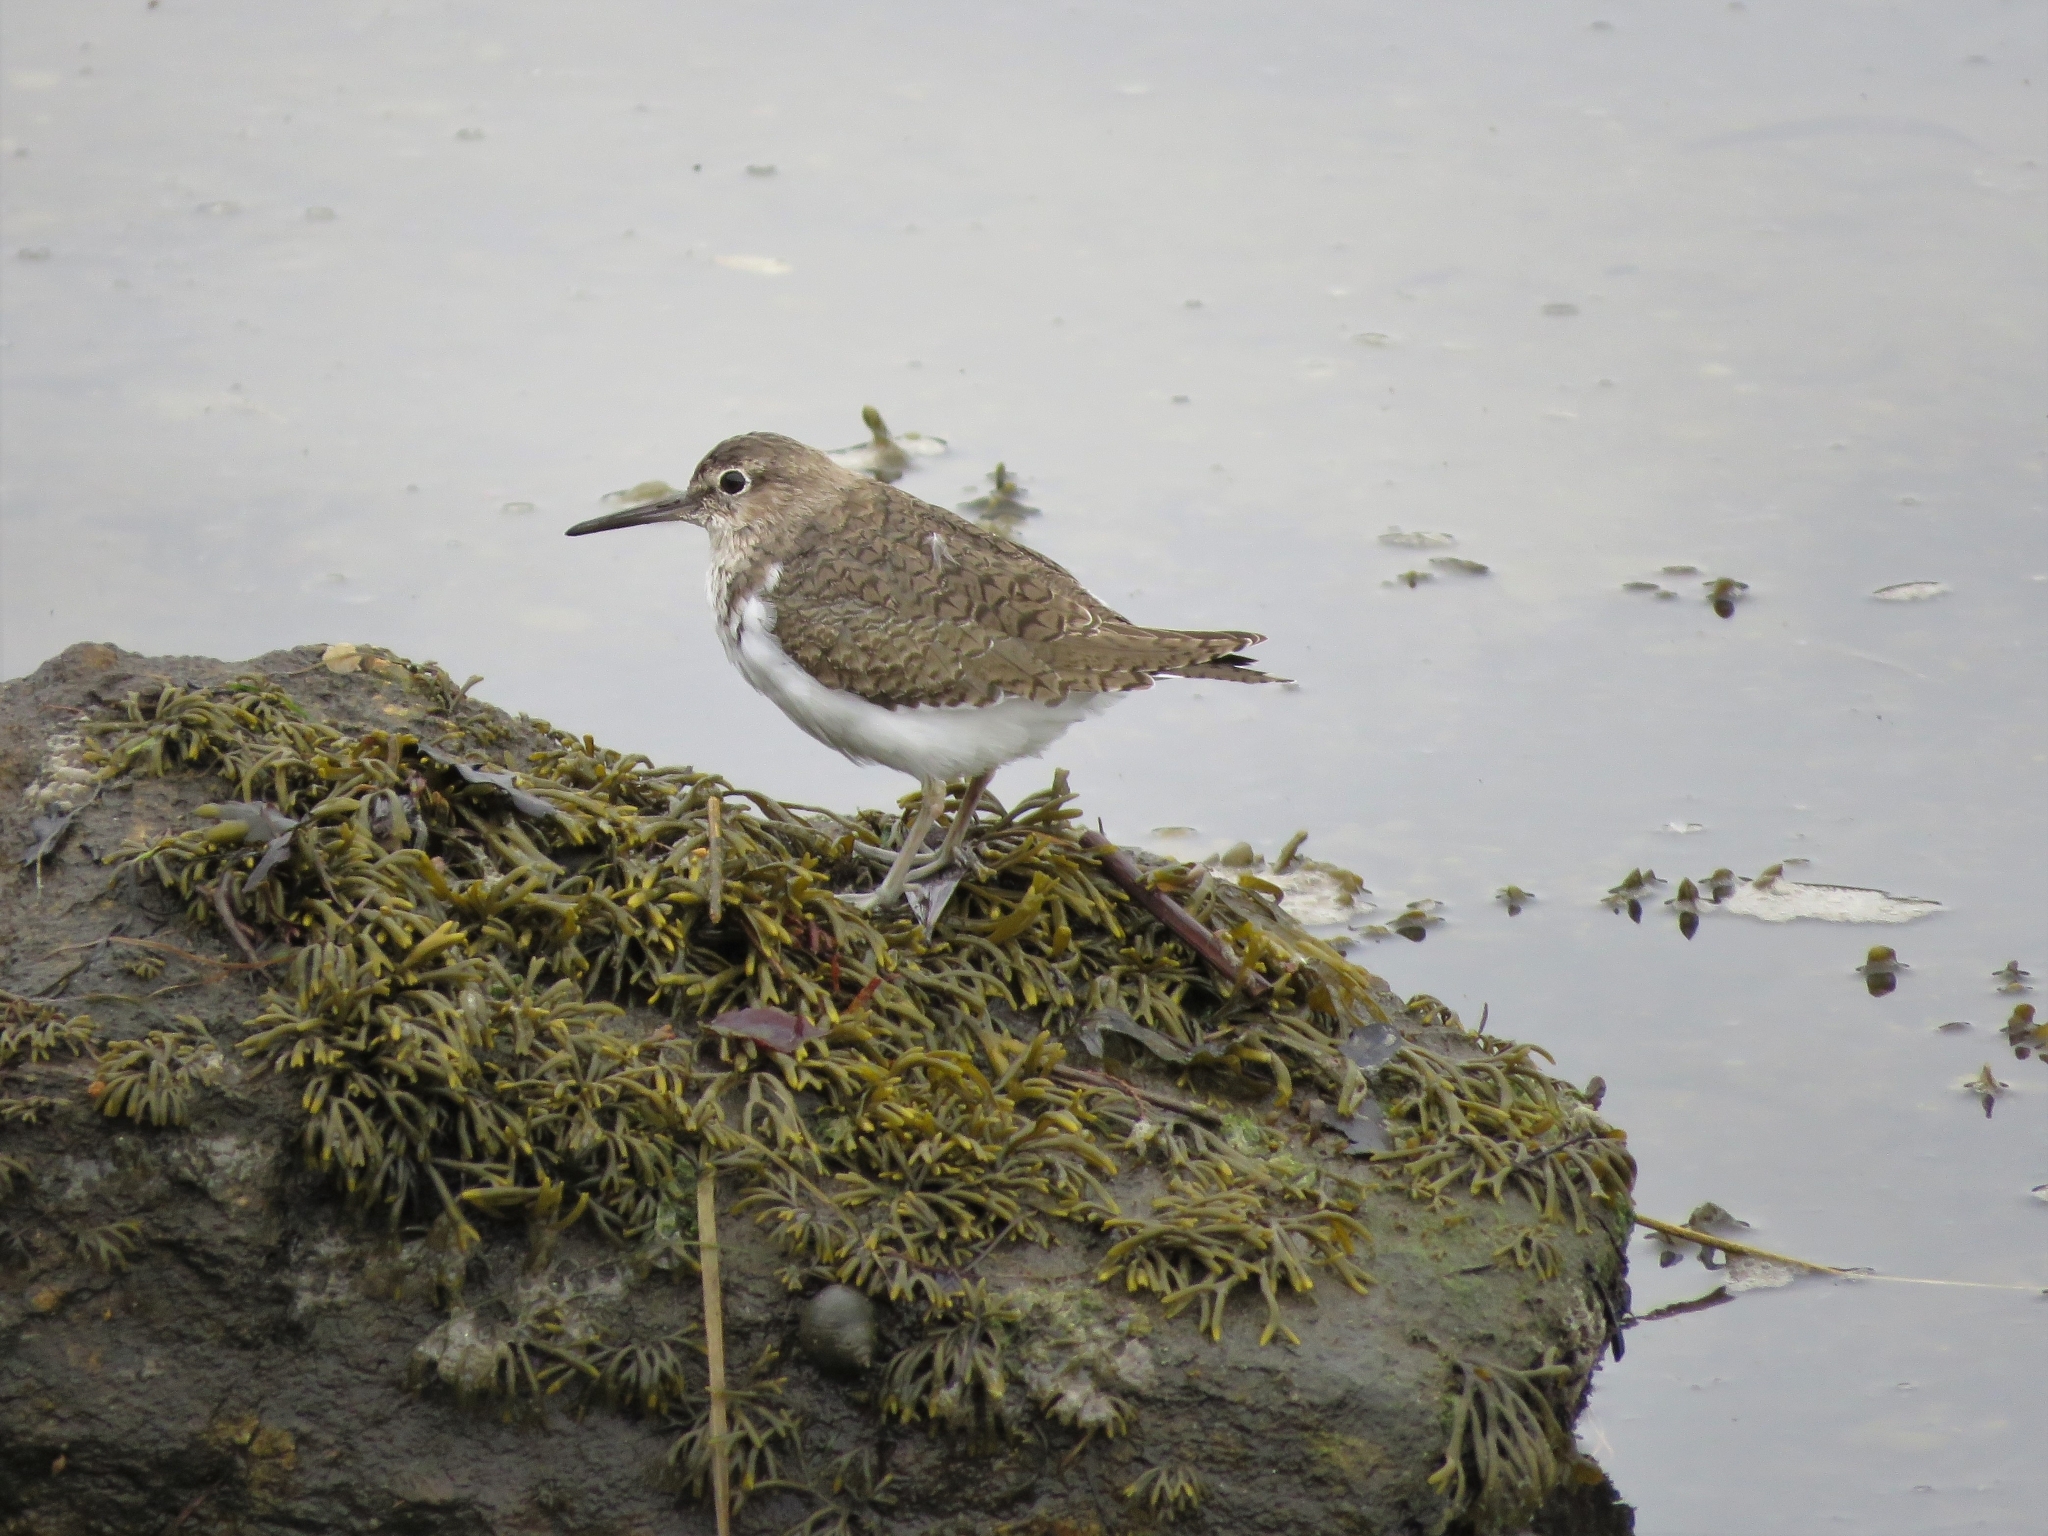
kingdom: Animalia
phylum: Chordata
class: Aves
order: Charadriiformes
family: Scolopacidae
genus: Actitis
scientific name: Actitis hypoleucos
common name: Common sandpiper
